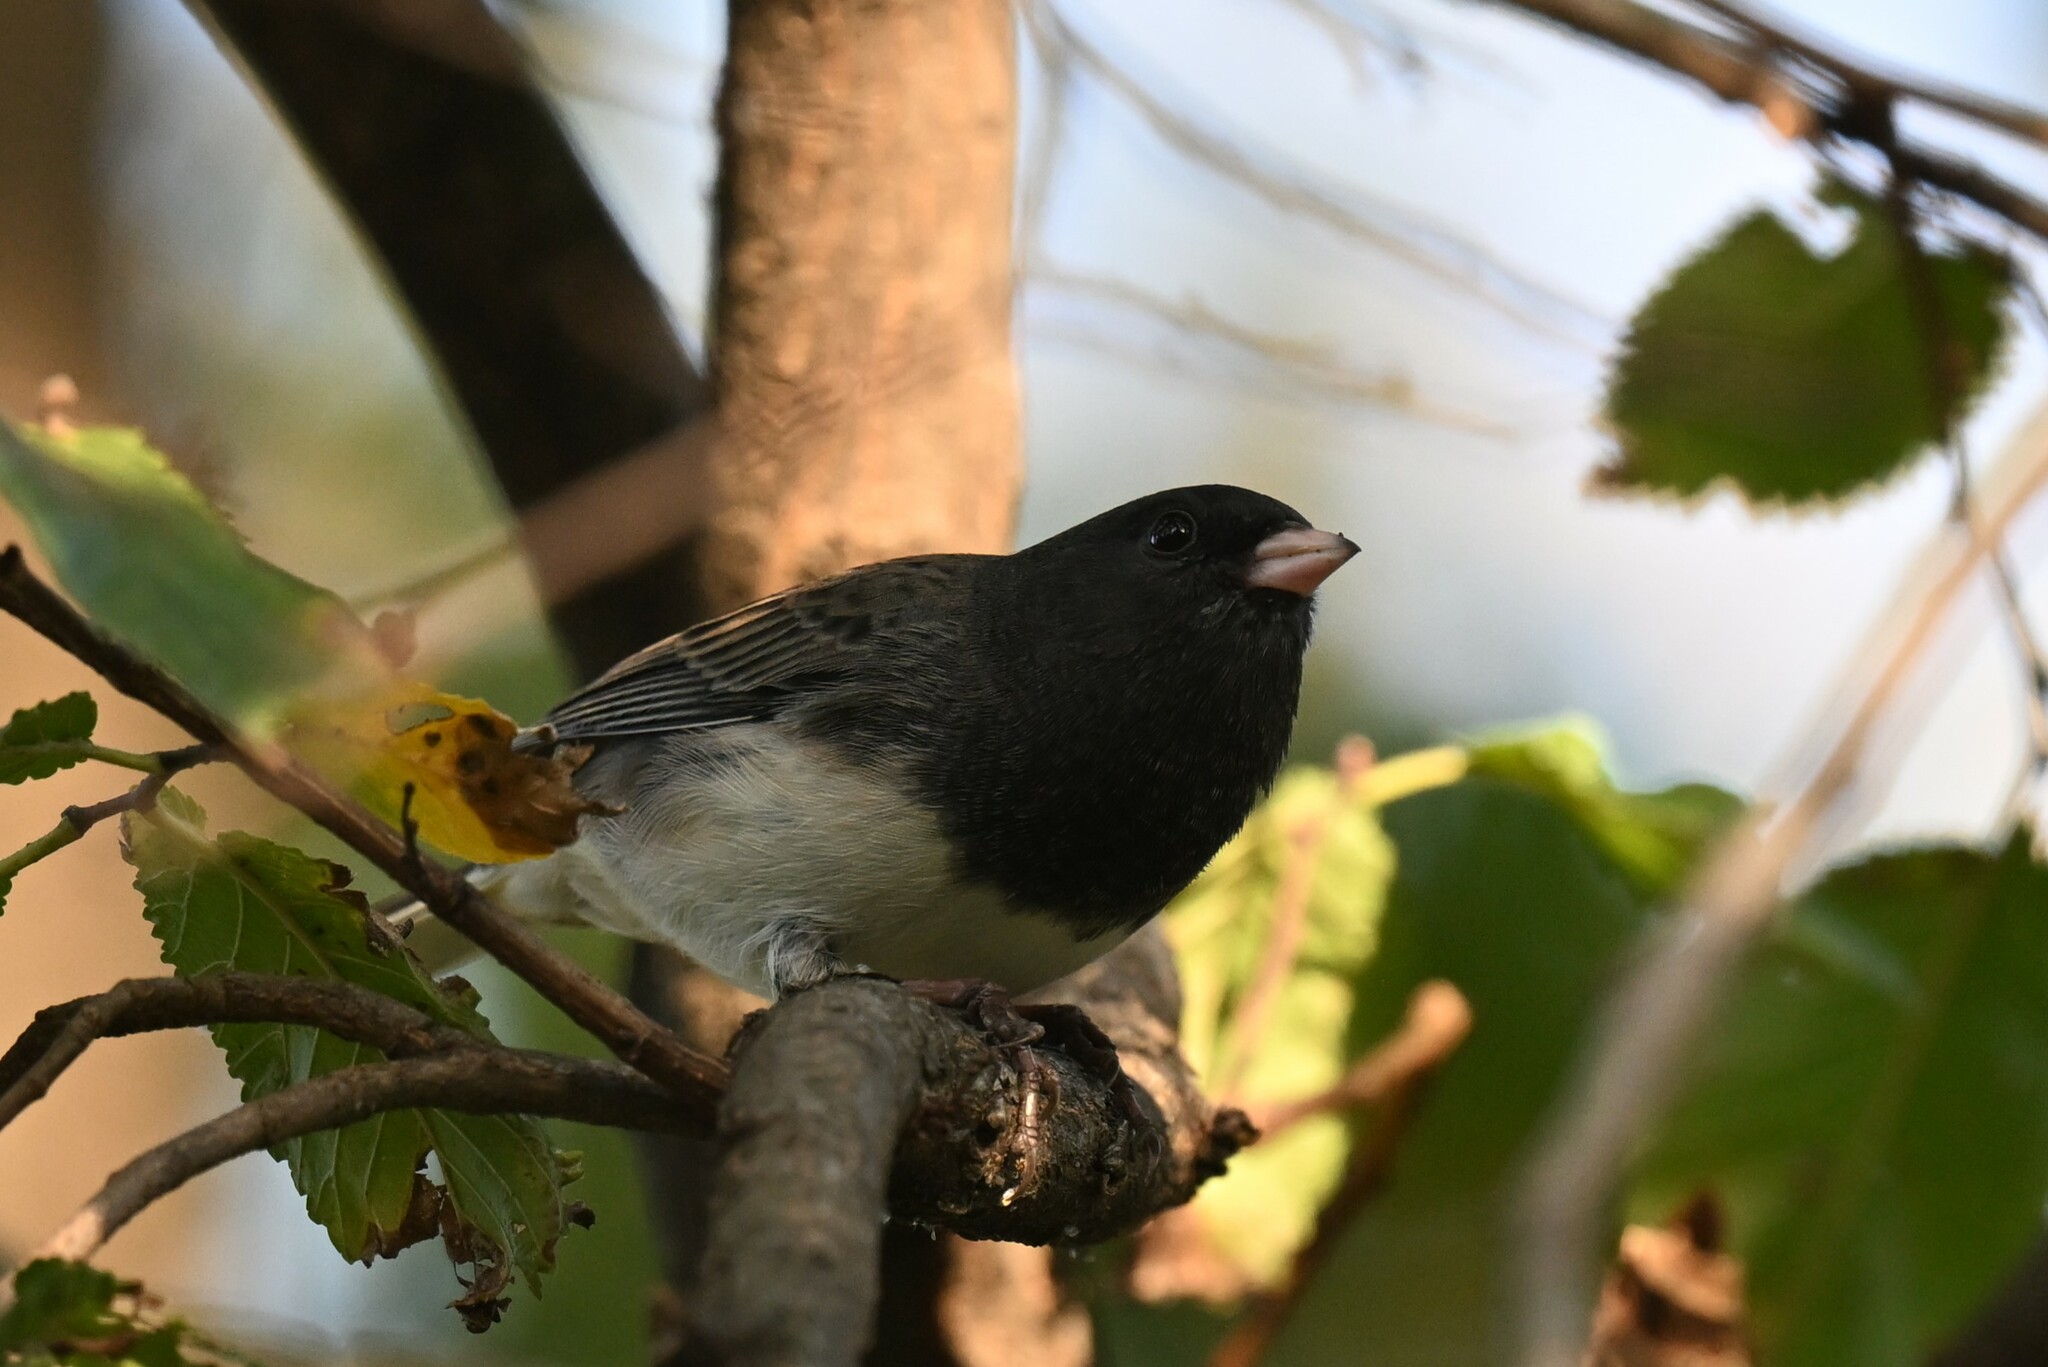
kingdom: Animalia
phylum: Chordata
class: Aves
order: Passeriformes
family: Passerellidae
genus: Junco
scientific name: Junco hyemalis
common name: Dark-eyed junco
